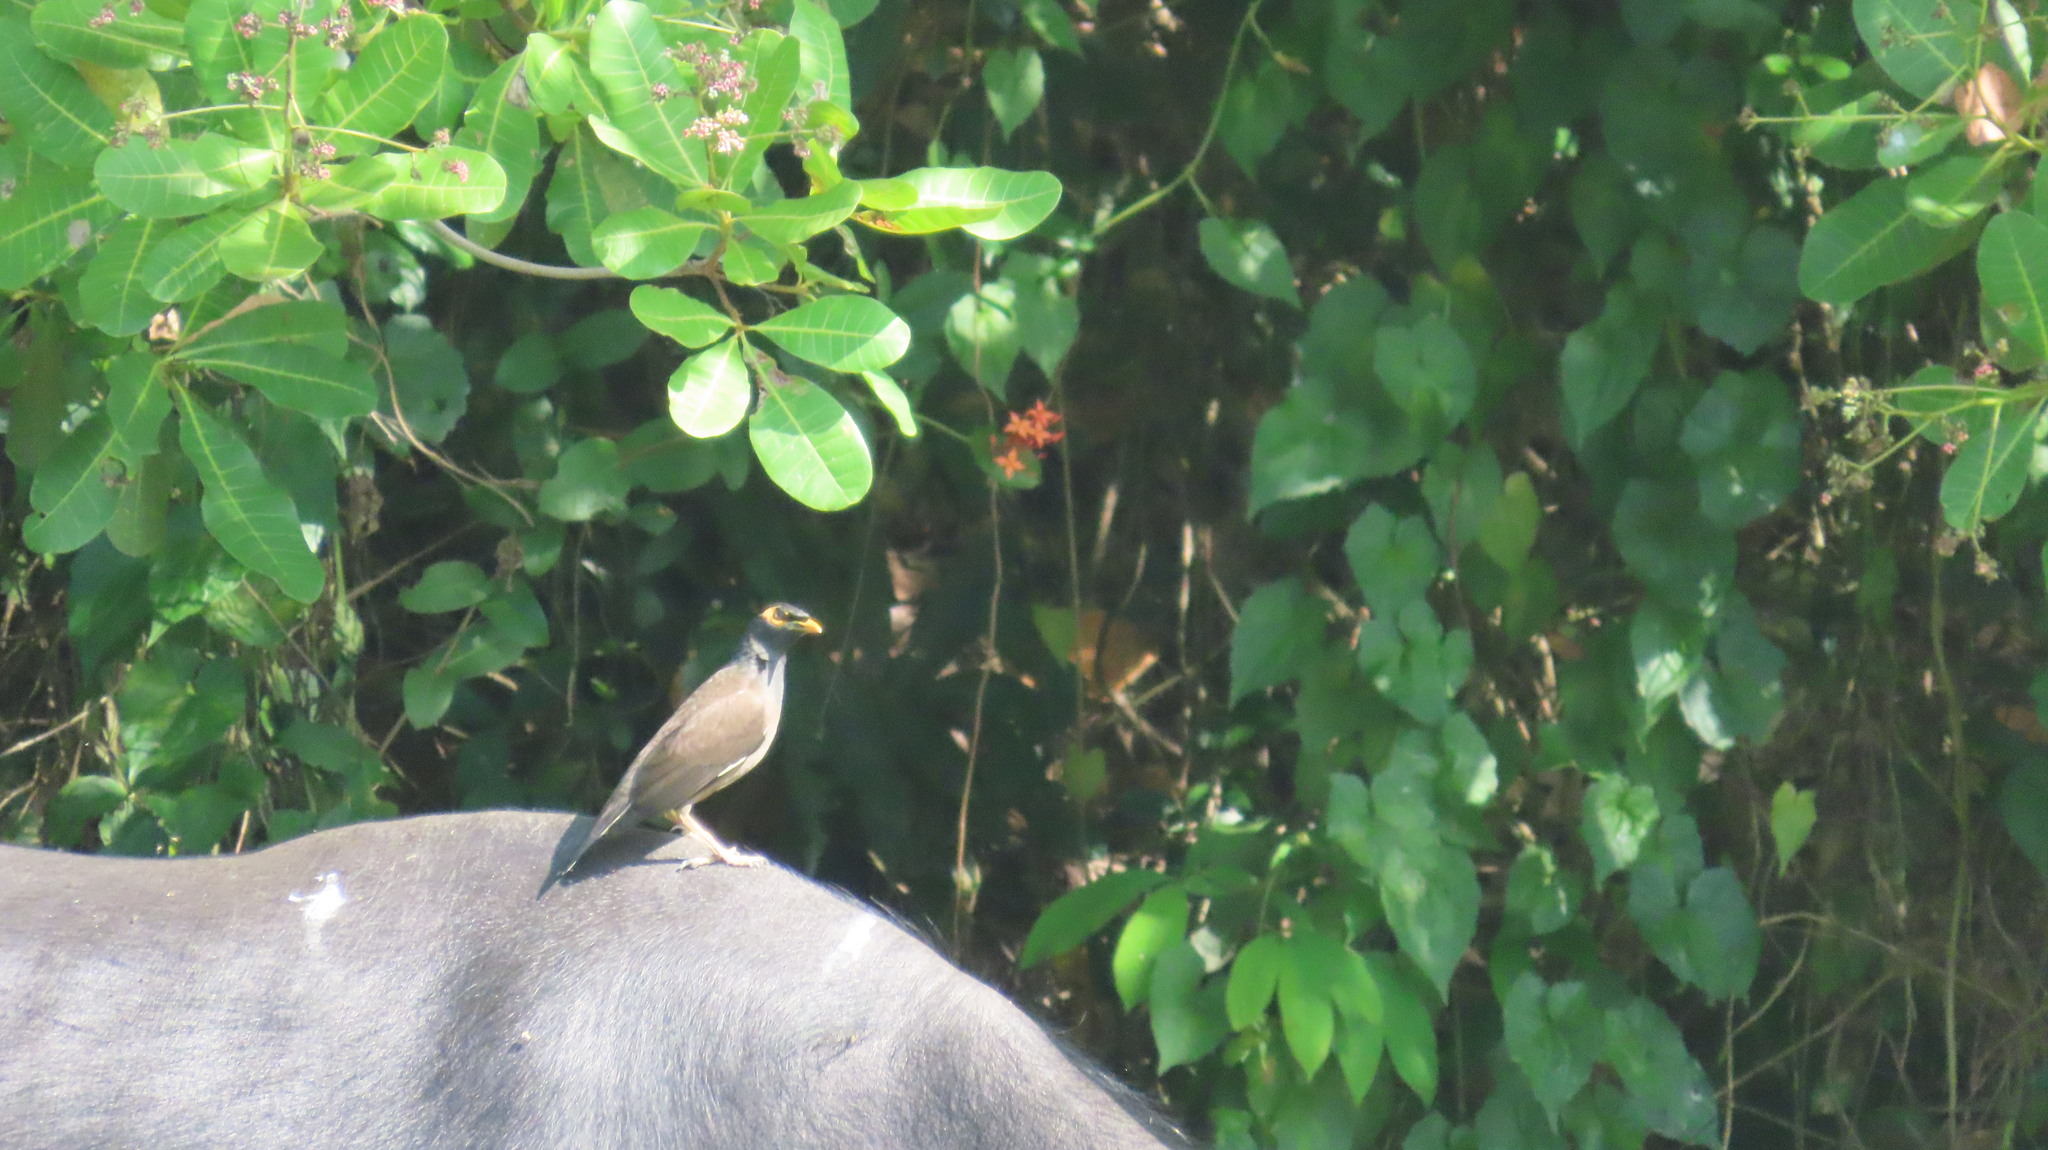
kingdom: Animalia
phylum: Chordata
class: Aves
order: Passeriformes
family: Sturnidae
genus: Acridotheres
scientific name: Acridotheres tristis
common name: Common myna
